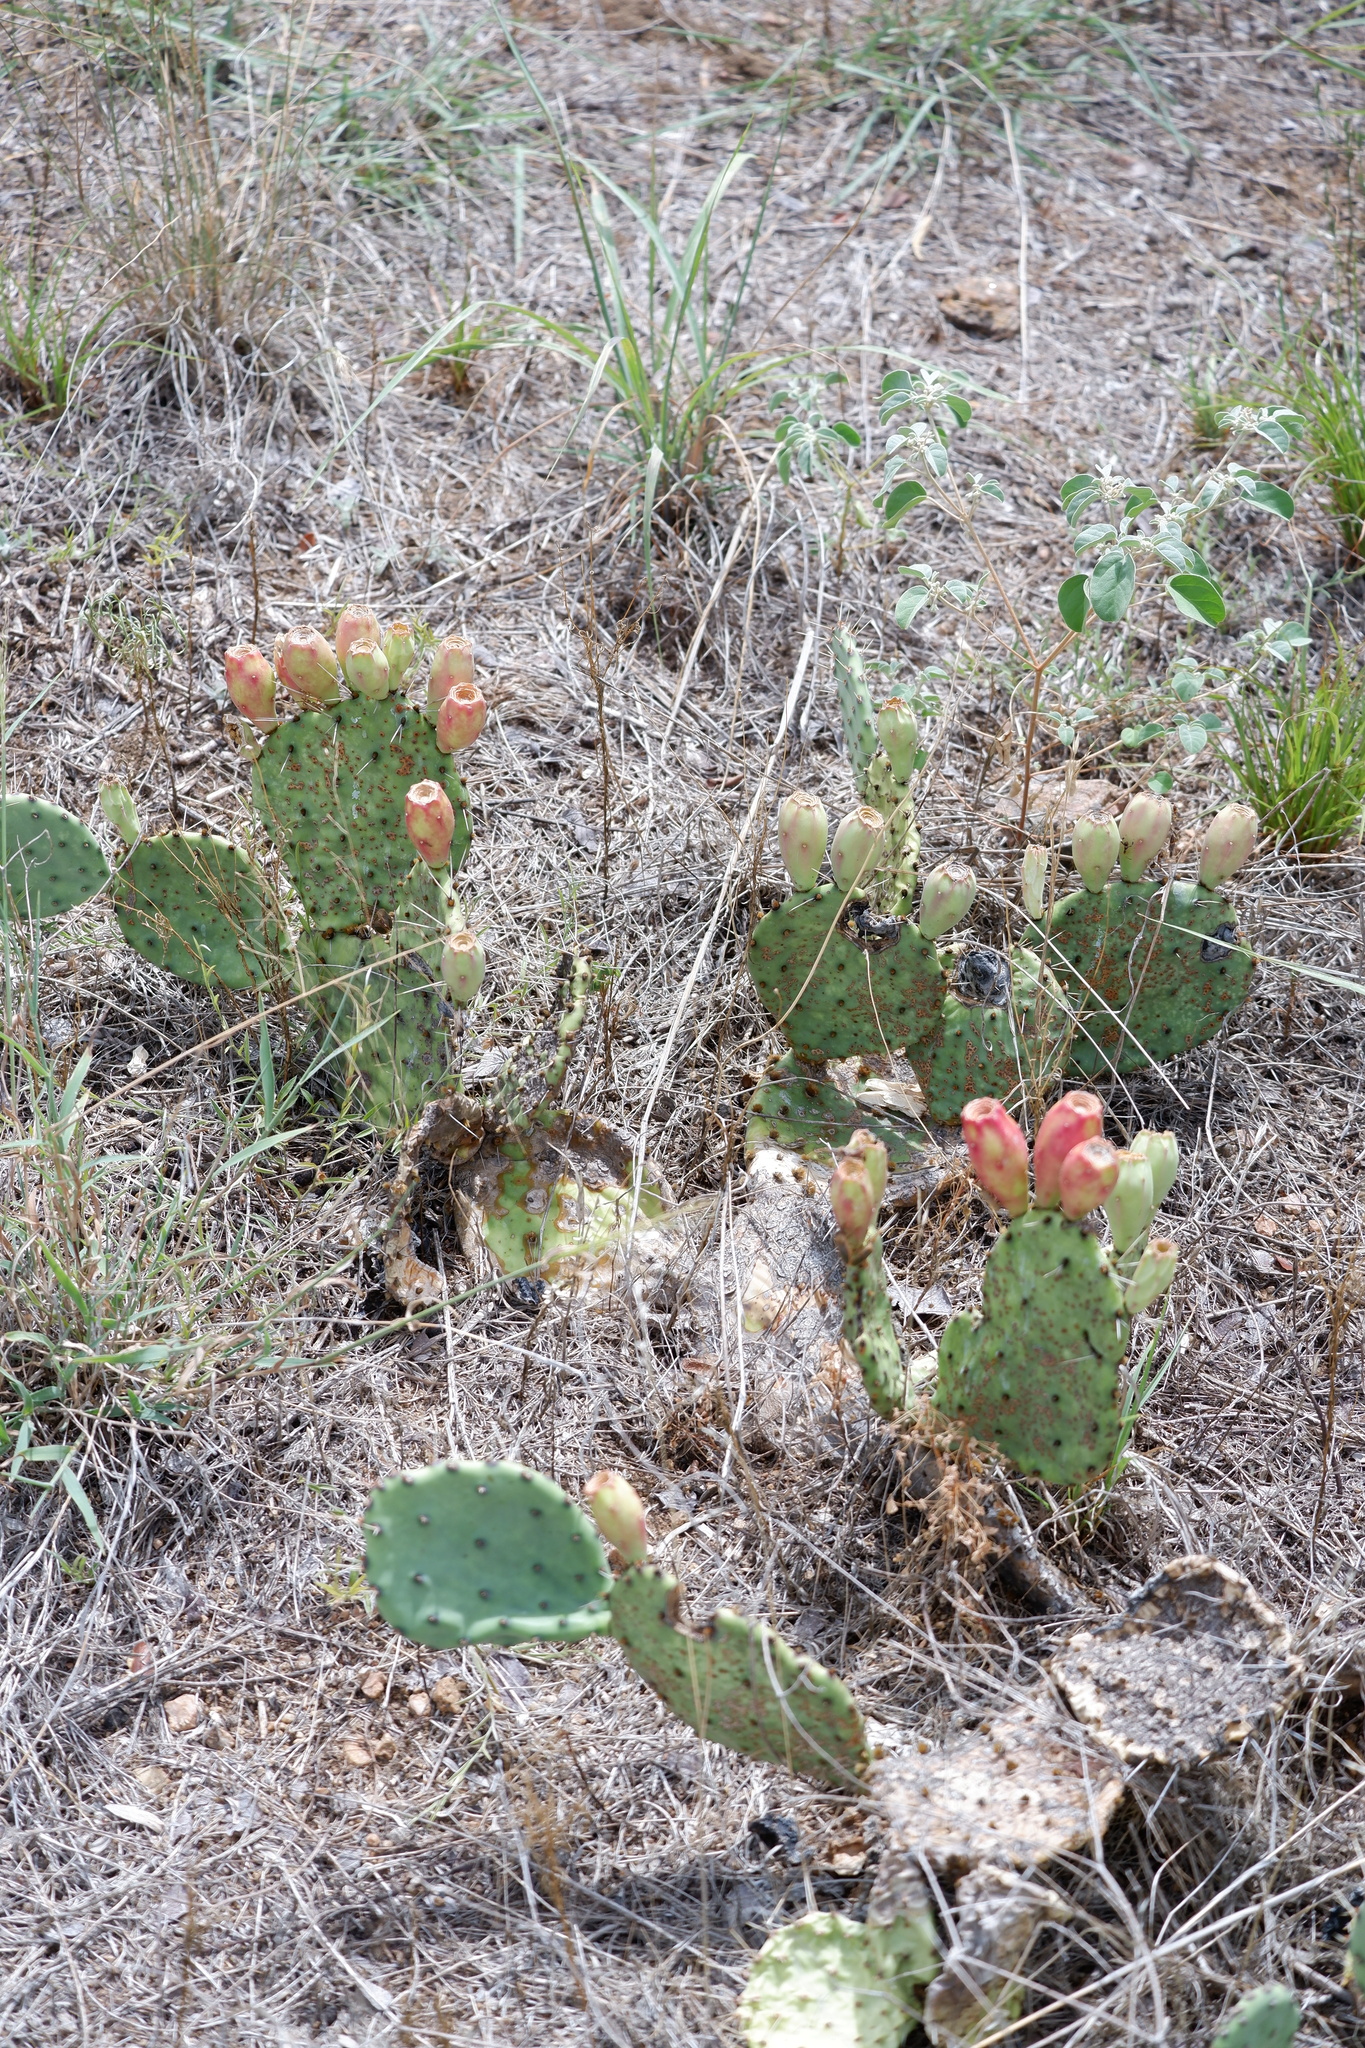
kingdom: Plantae
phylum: Tracheophyta
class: Magnoliopsida
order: Caryophyllales
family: Cactaceae
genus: Opuntia
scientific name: Opuntia macrorhiza
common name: Grassland pricklypear
